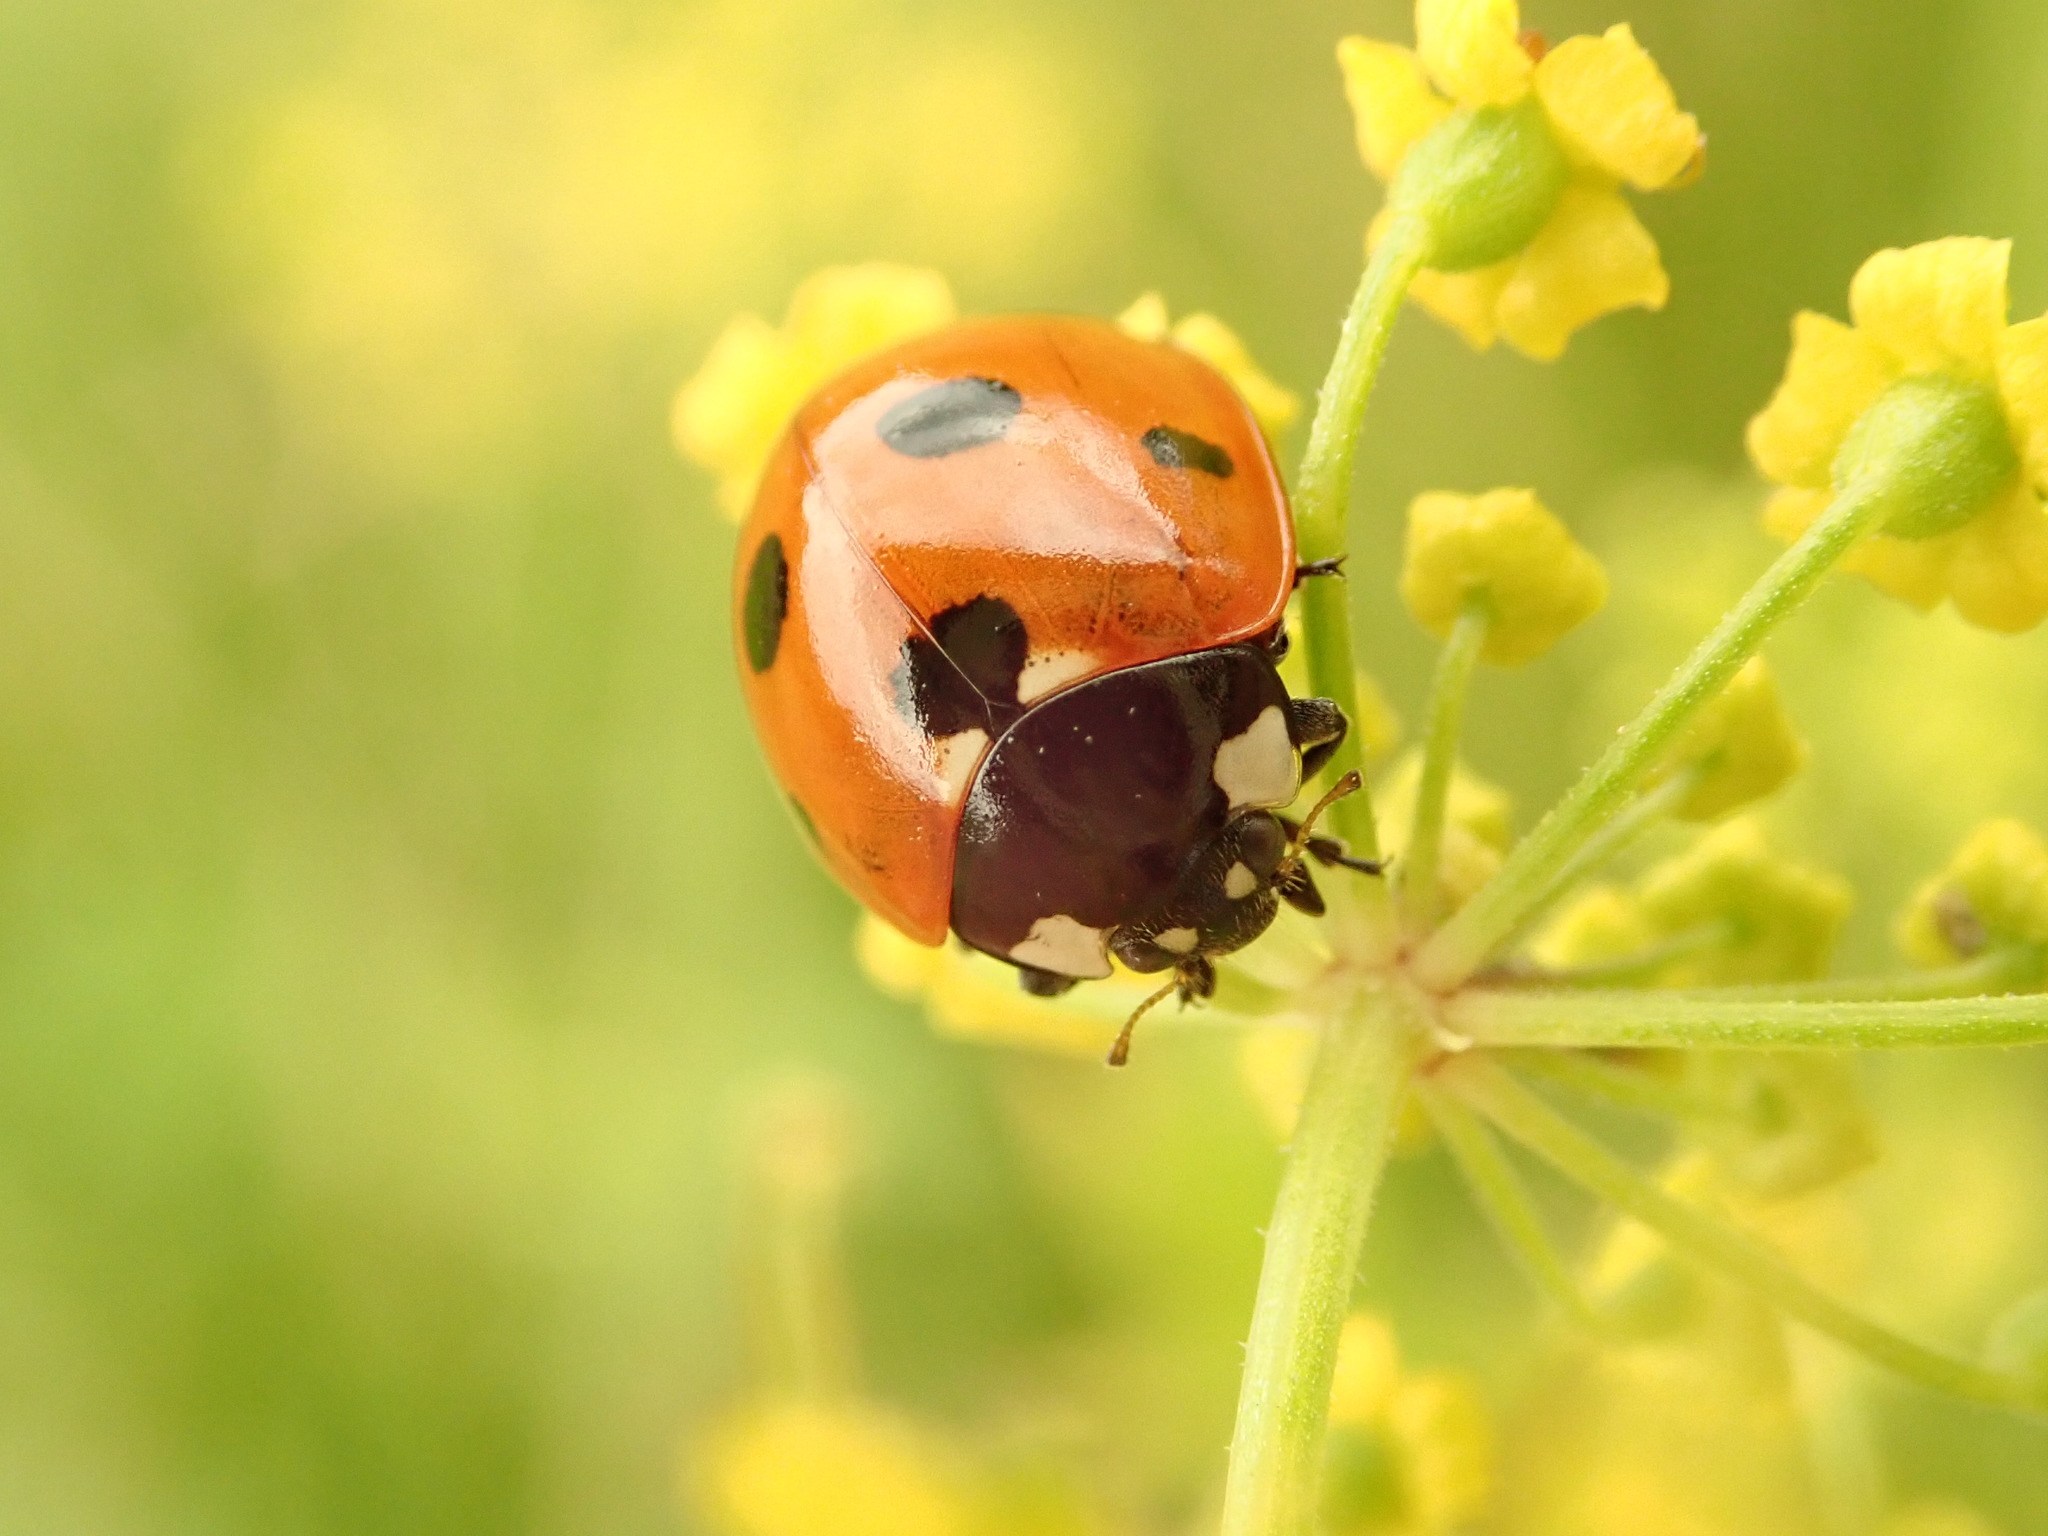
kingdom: Animalia
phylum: Arthropoda
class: Insecta
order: Coleoptera
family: Coccinellidae
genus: Coccinella
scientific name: Coccinella septempunctata
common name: Sevenspotted lady beetle
